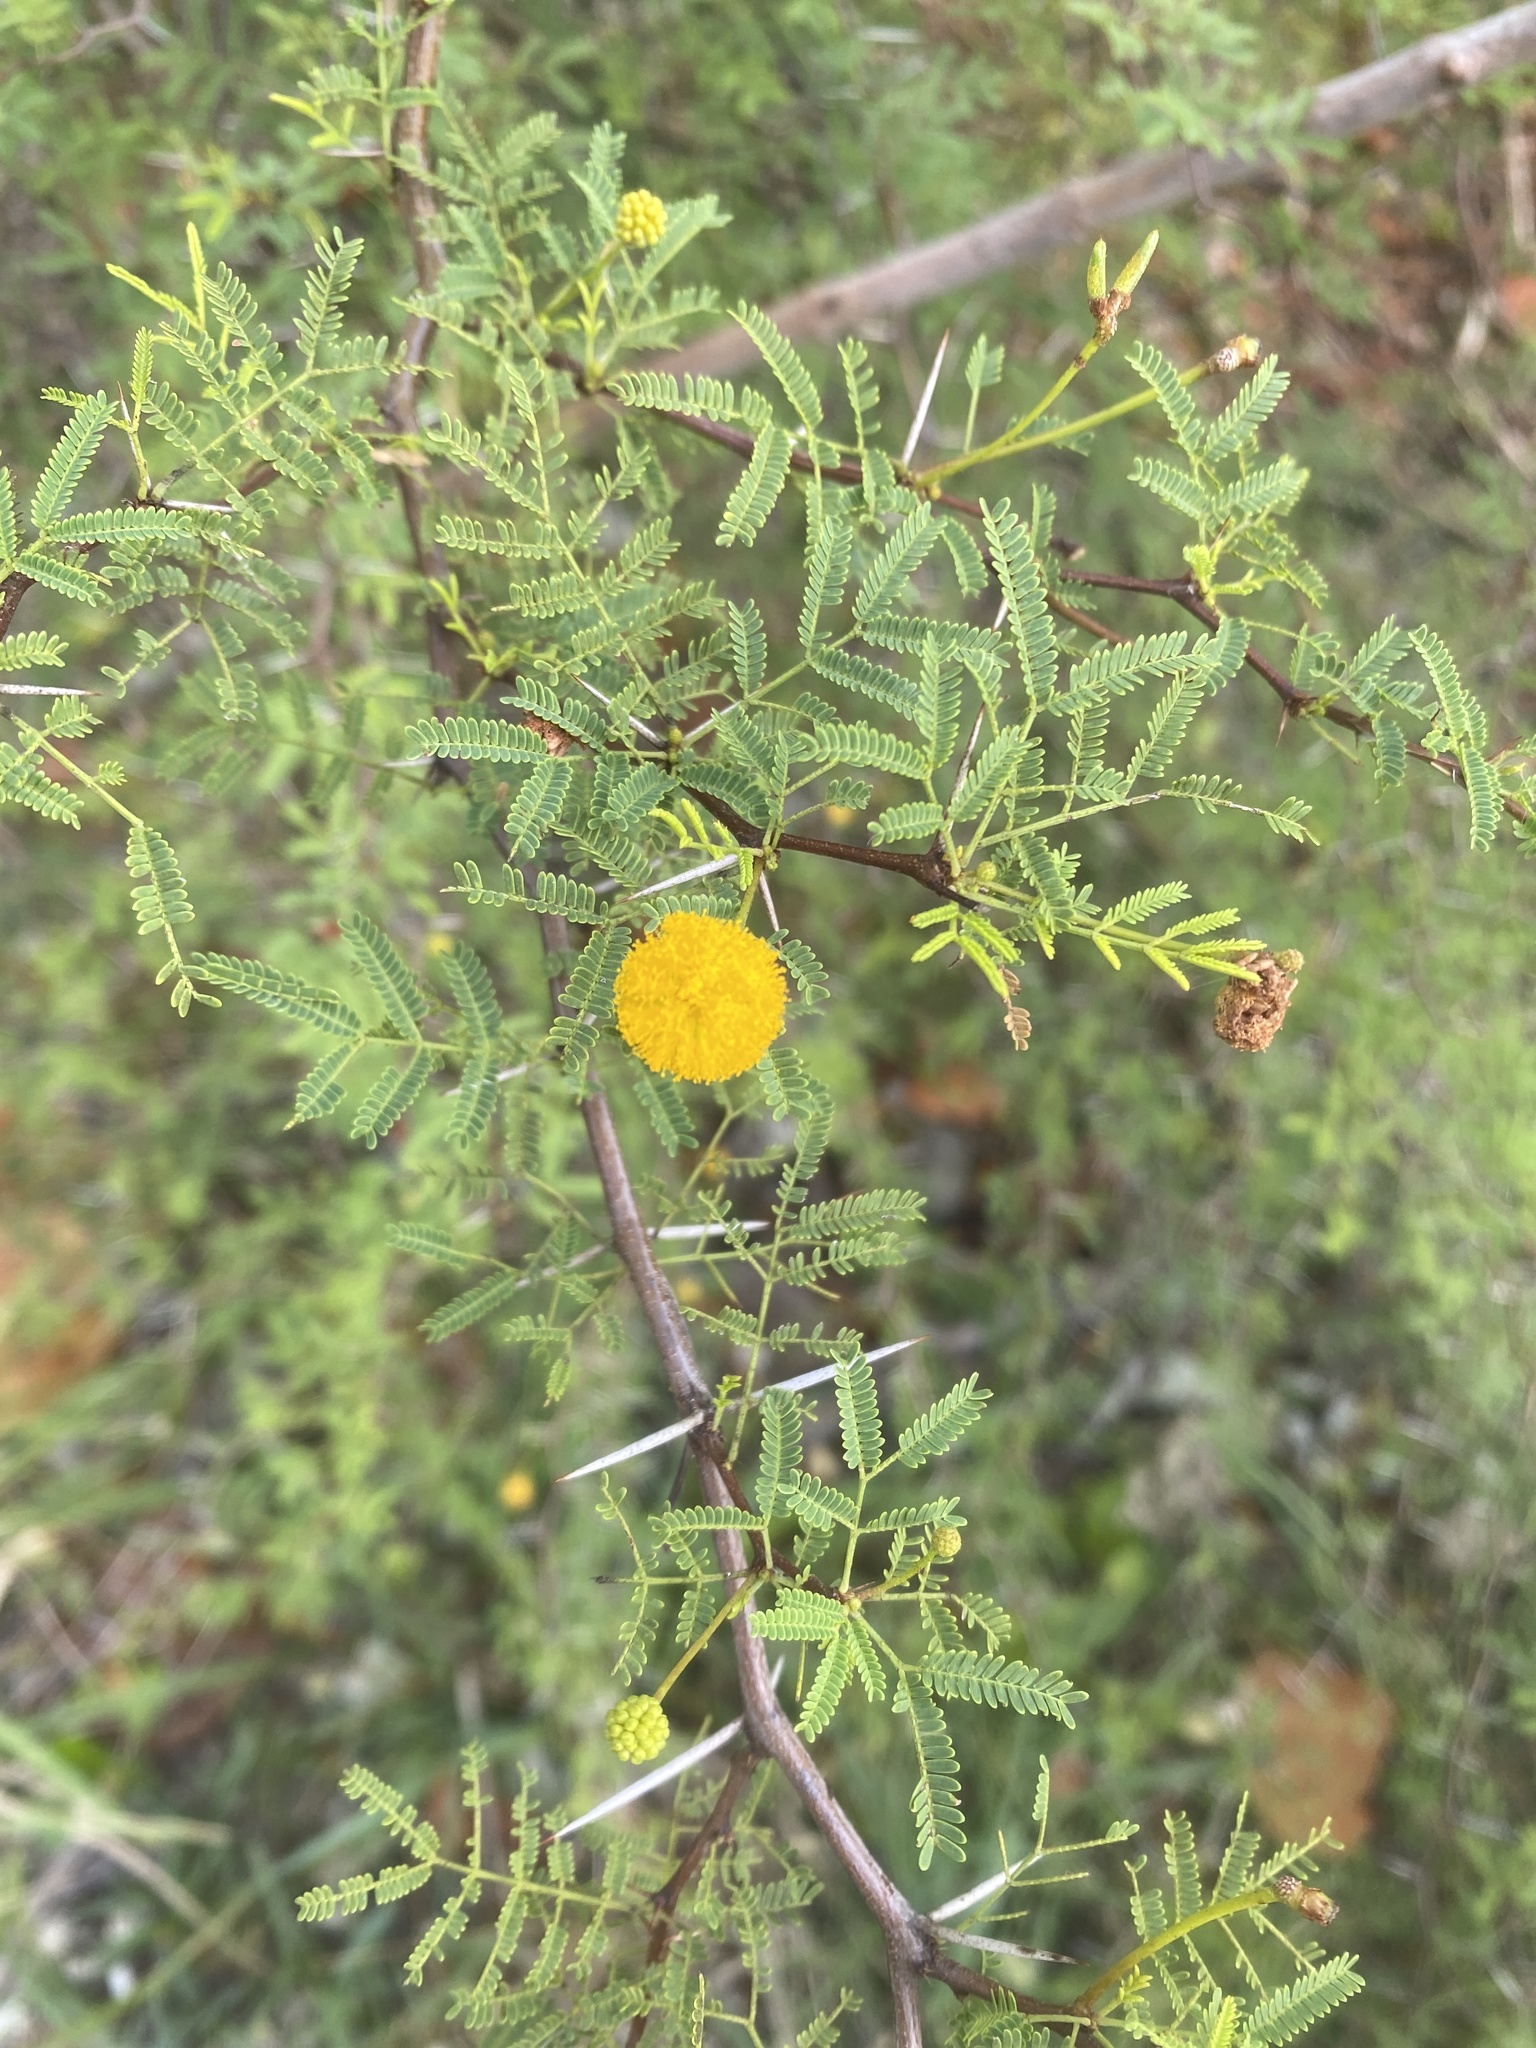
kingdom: Plantae
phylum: Tracheophyta
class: Magnoliopsida
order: Fabales
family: Fabaceae
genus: Vachellia
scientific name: Vachellia farnesiana
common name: Sweet acacia
